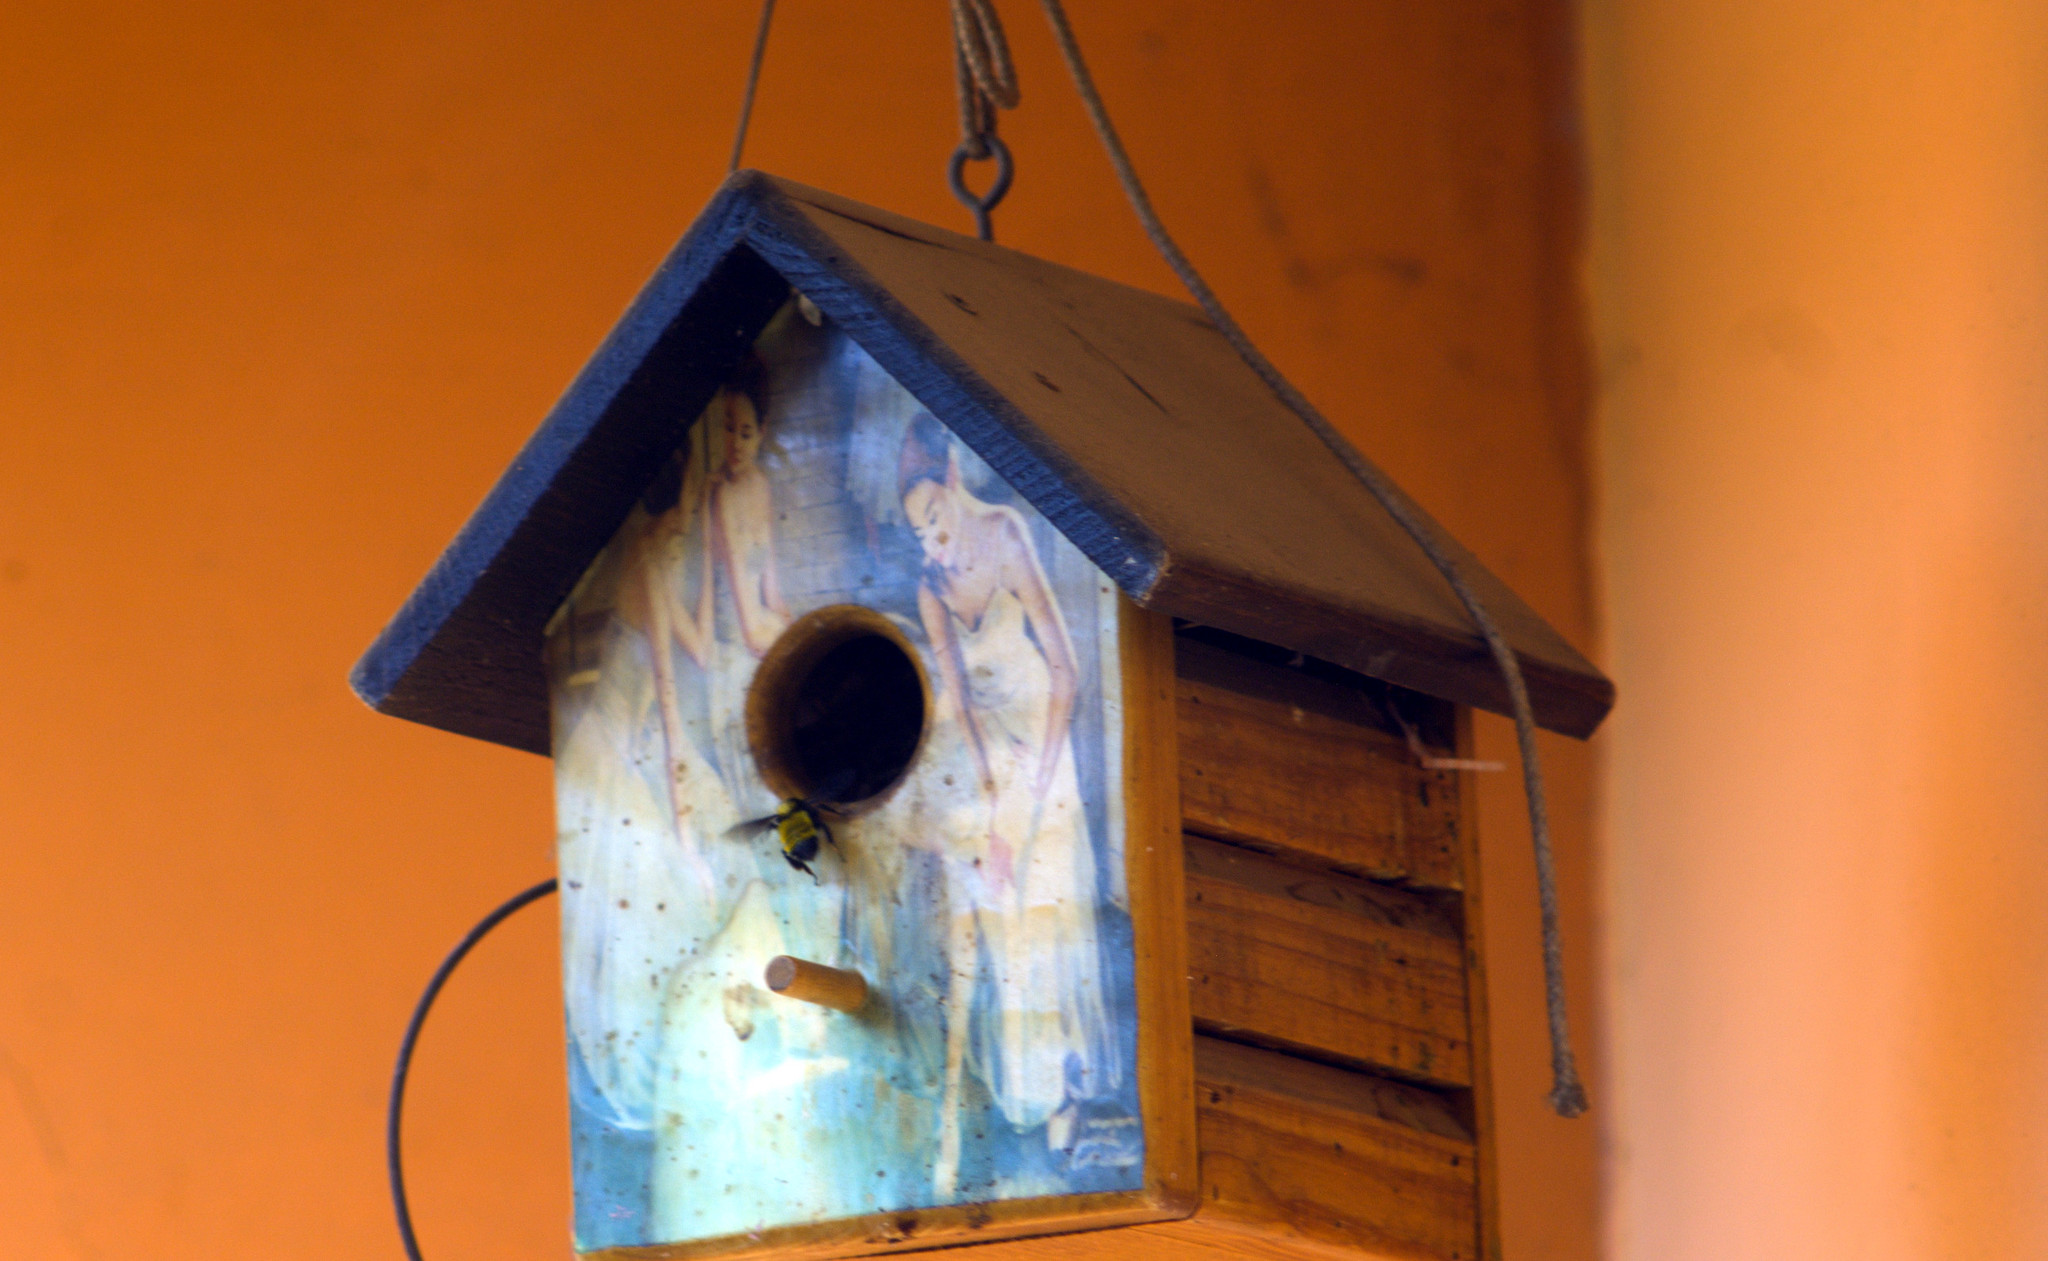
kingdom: Animalia
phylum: Arthropoda
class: Insecta
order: Hymenoptera
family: Apidae
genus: Bombus
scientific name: Bombus sonorus
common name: Sonoran bumble bee
